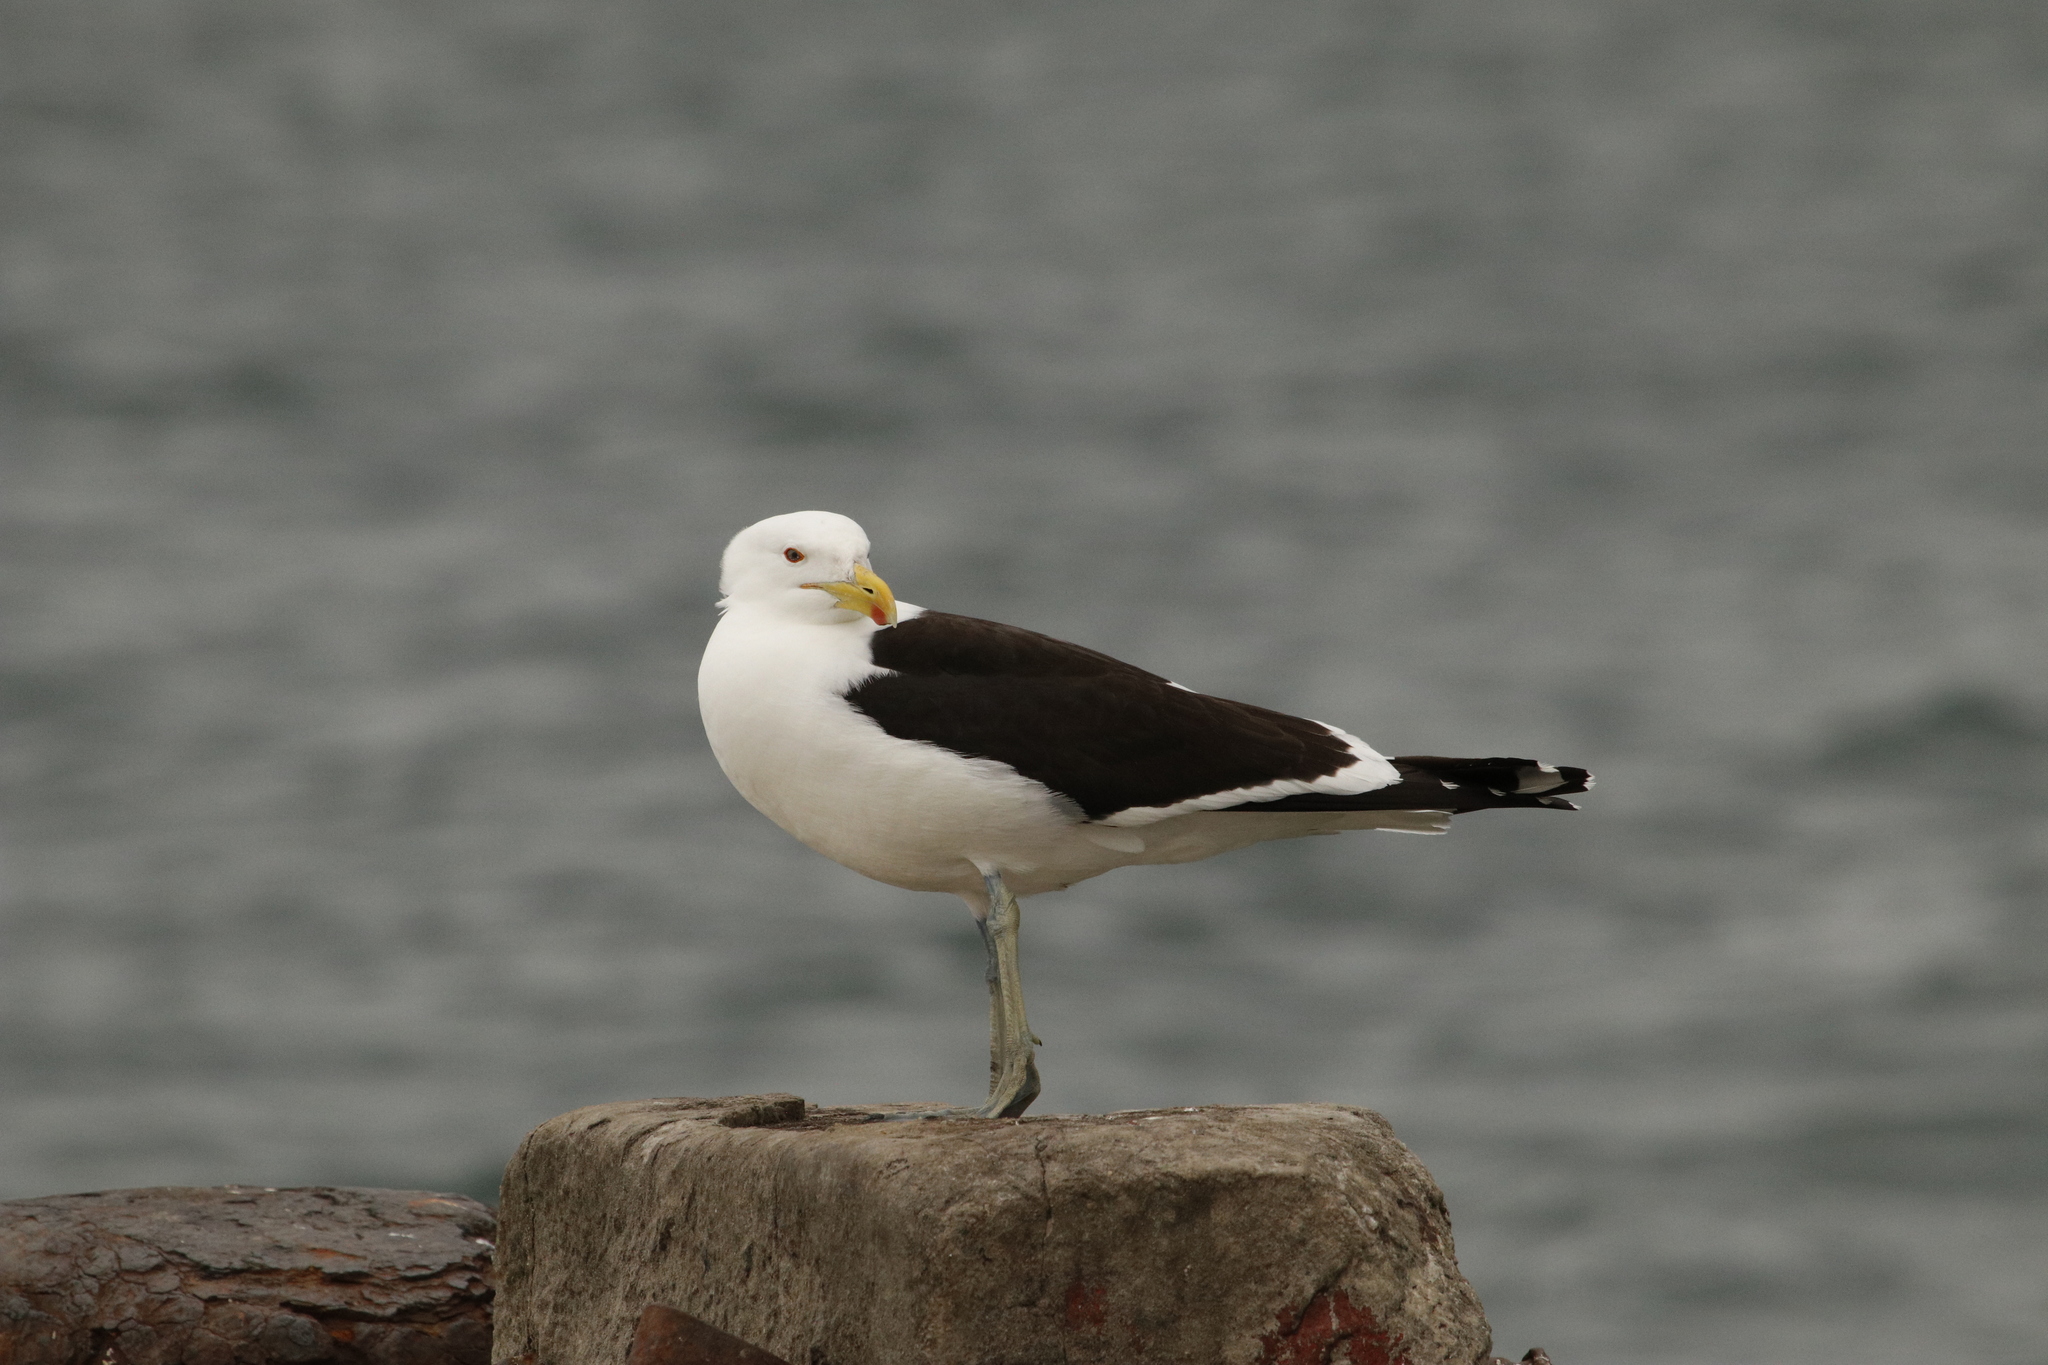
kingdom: Animalia
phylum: Chordata
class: Aves
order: Charadriiformes
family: Laridae
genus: Larus
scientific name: Larus dominicanus
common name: Kelp gull
